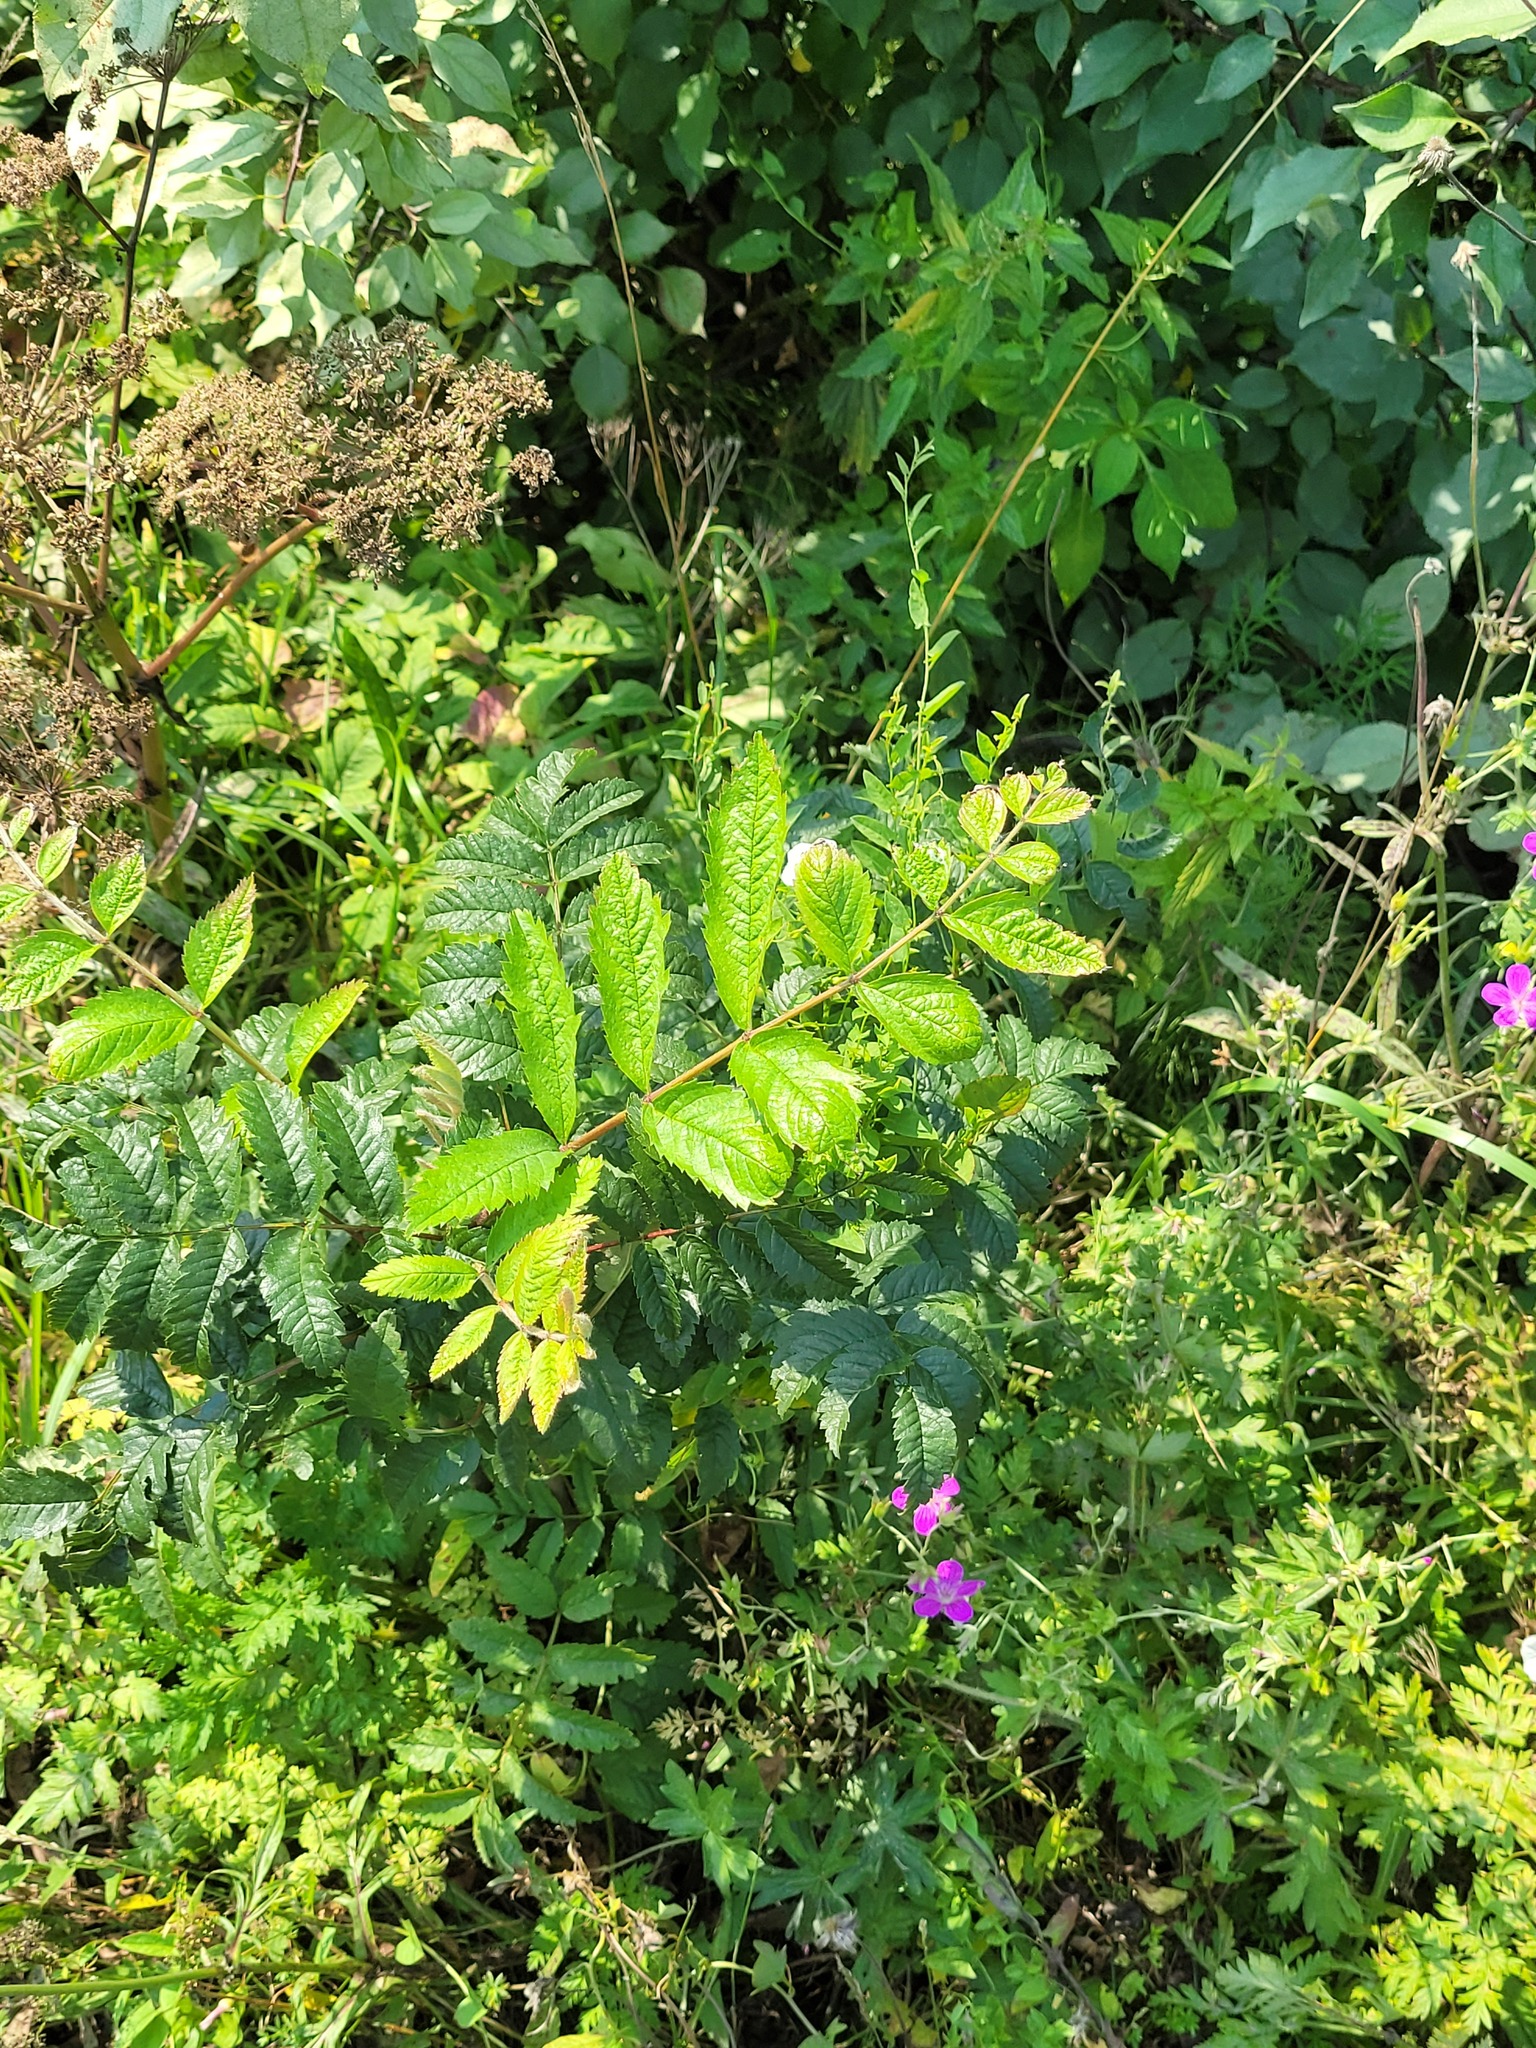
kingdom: Plantae
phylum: Tracheophyta
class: Magnoliopsida
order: Rosales
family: Rosaceae
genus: Sorbus
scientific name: Sorbus aucuparia
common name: Rowan
